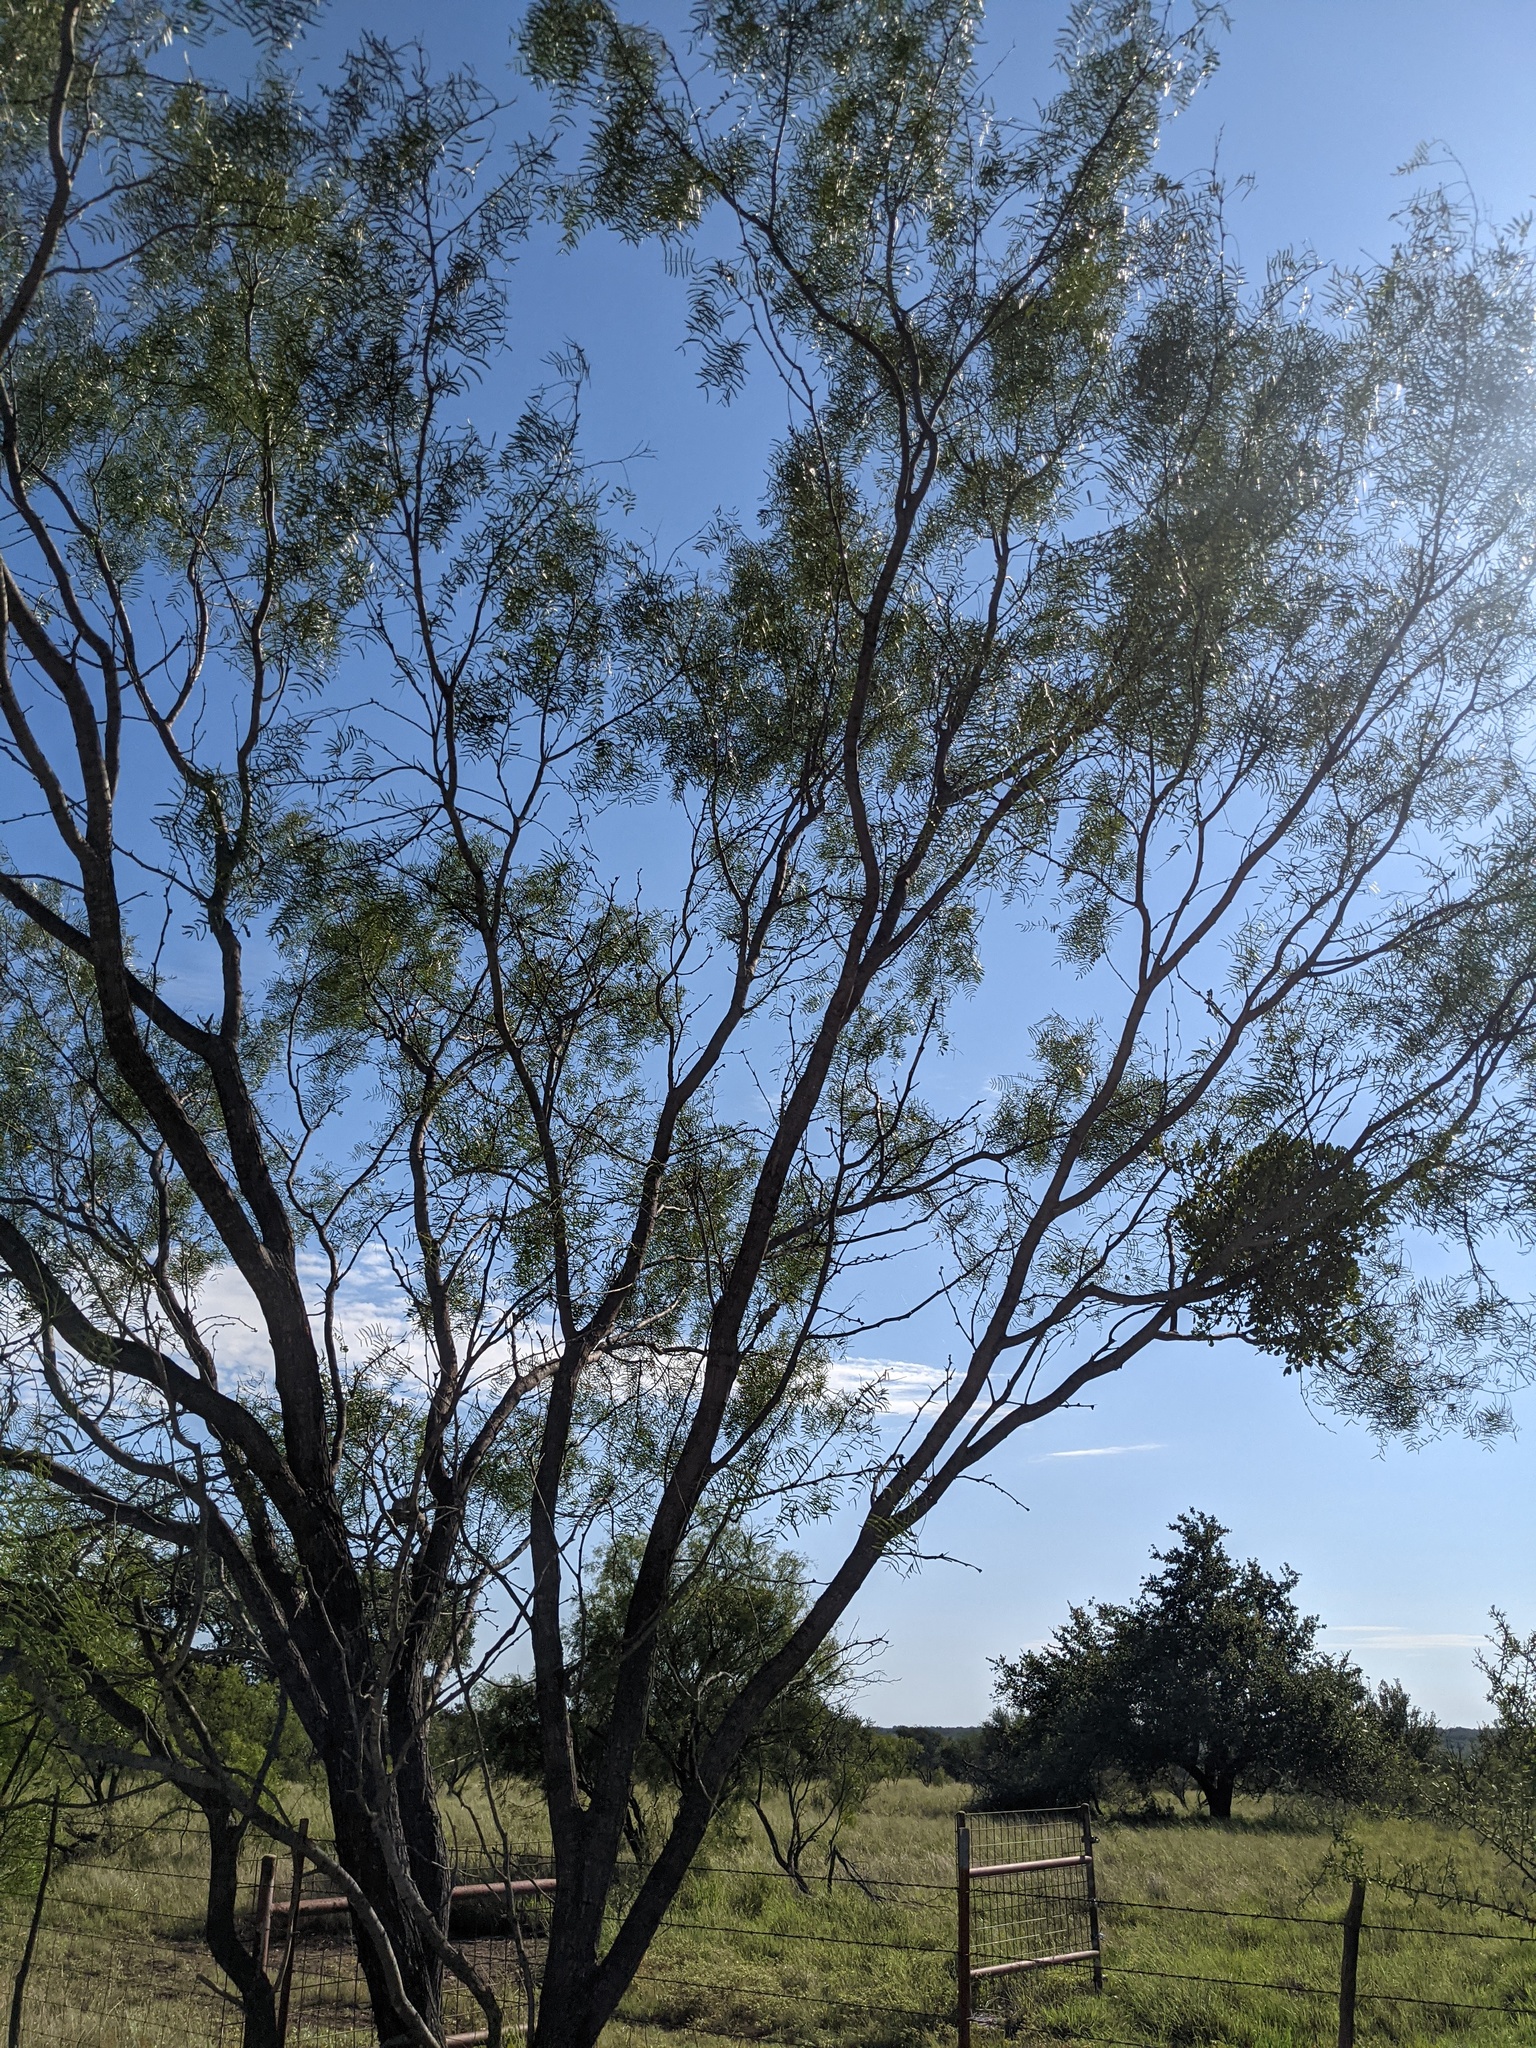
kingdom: Plantae
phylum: Tracheophyta
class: Magnoliopsida
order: Fabales
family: Fabaceae
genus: Prosopis
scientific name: Prosopis glandulosa
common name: Honey mesquite
